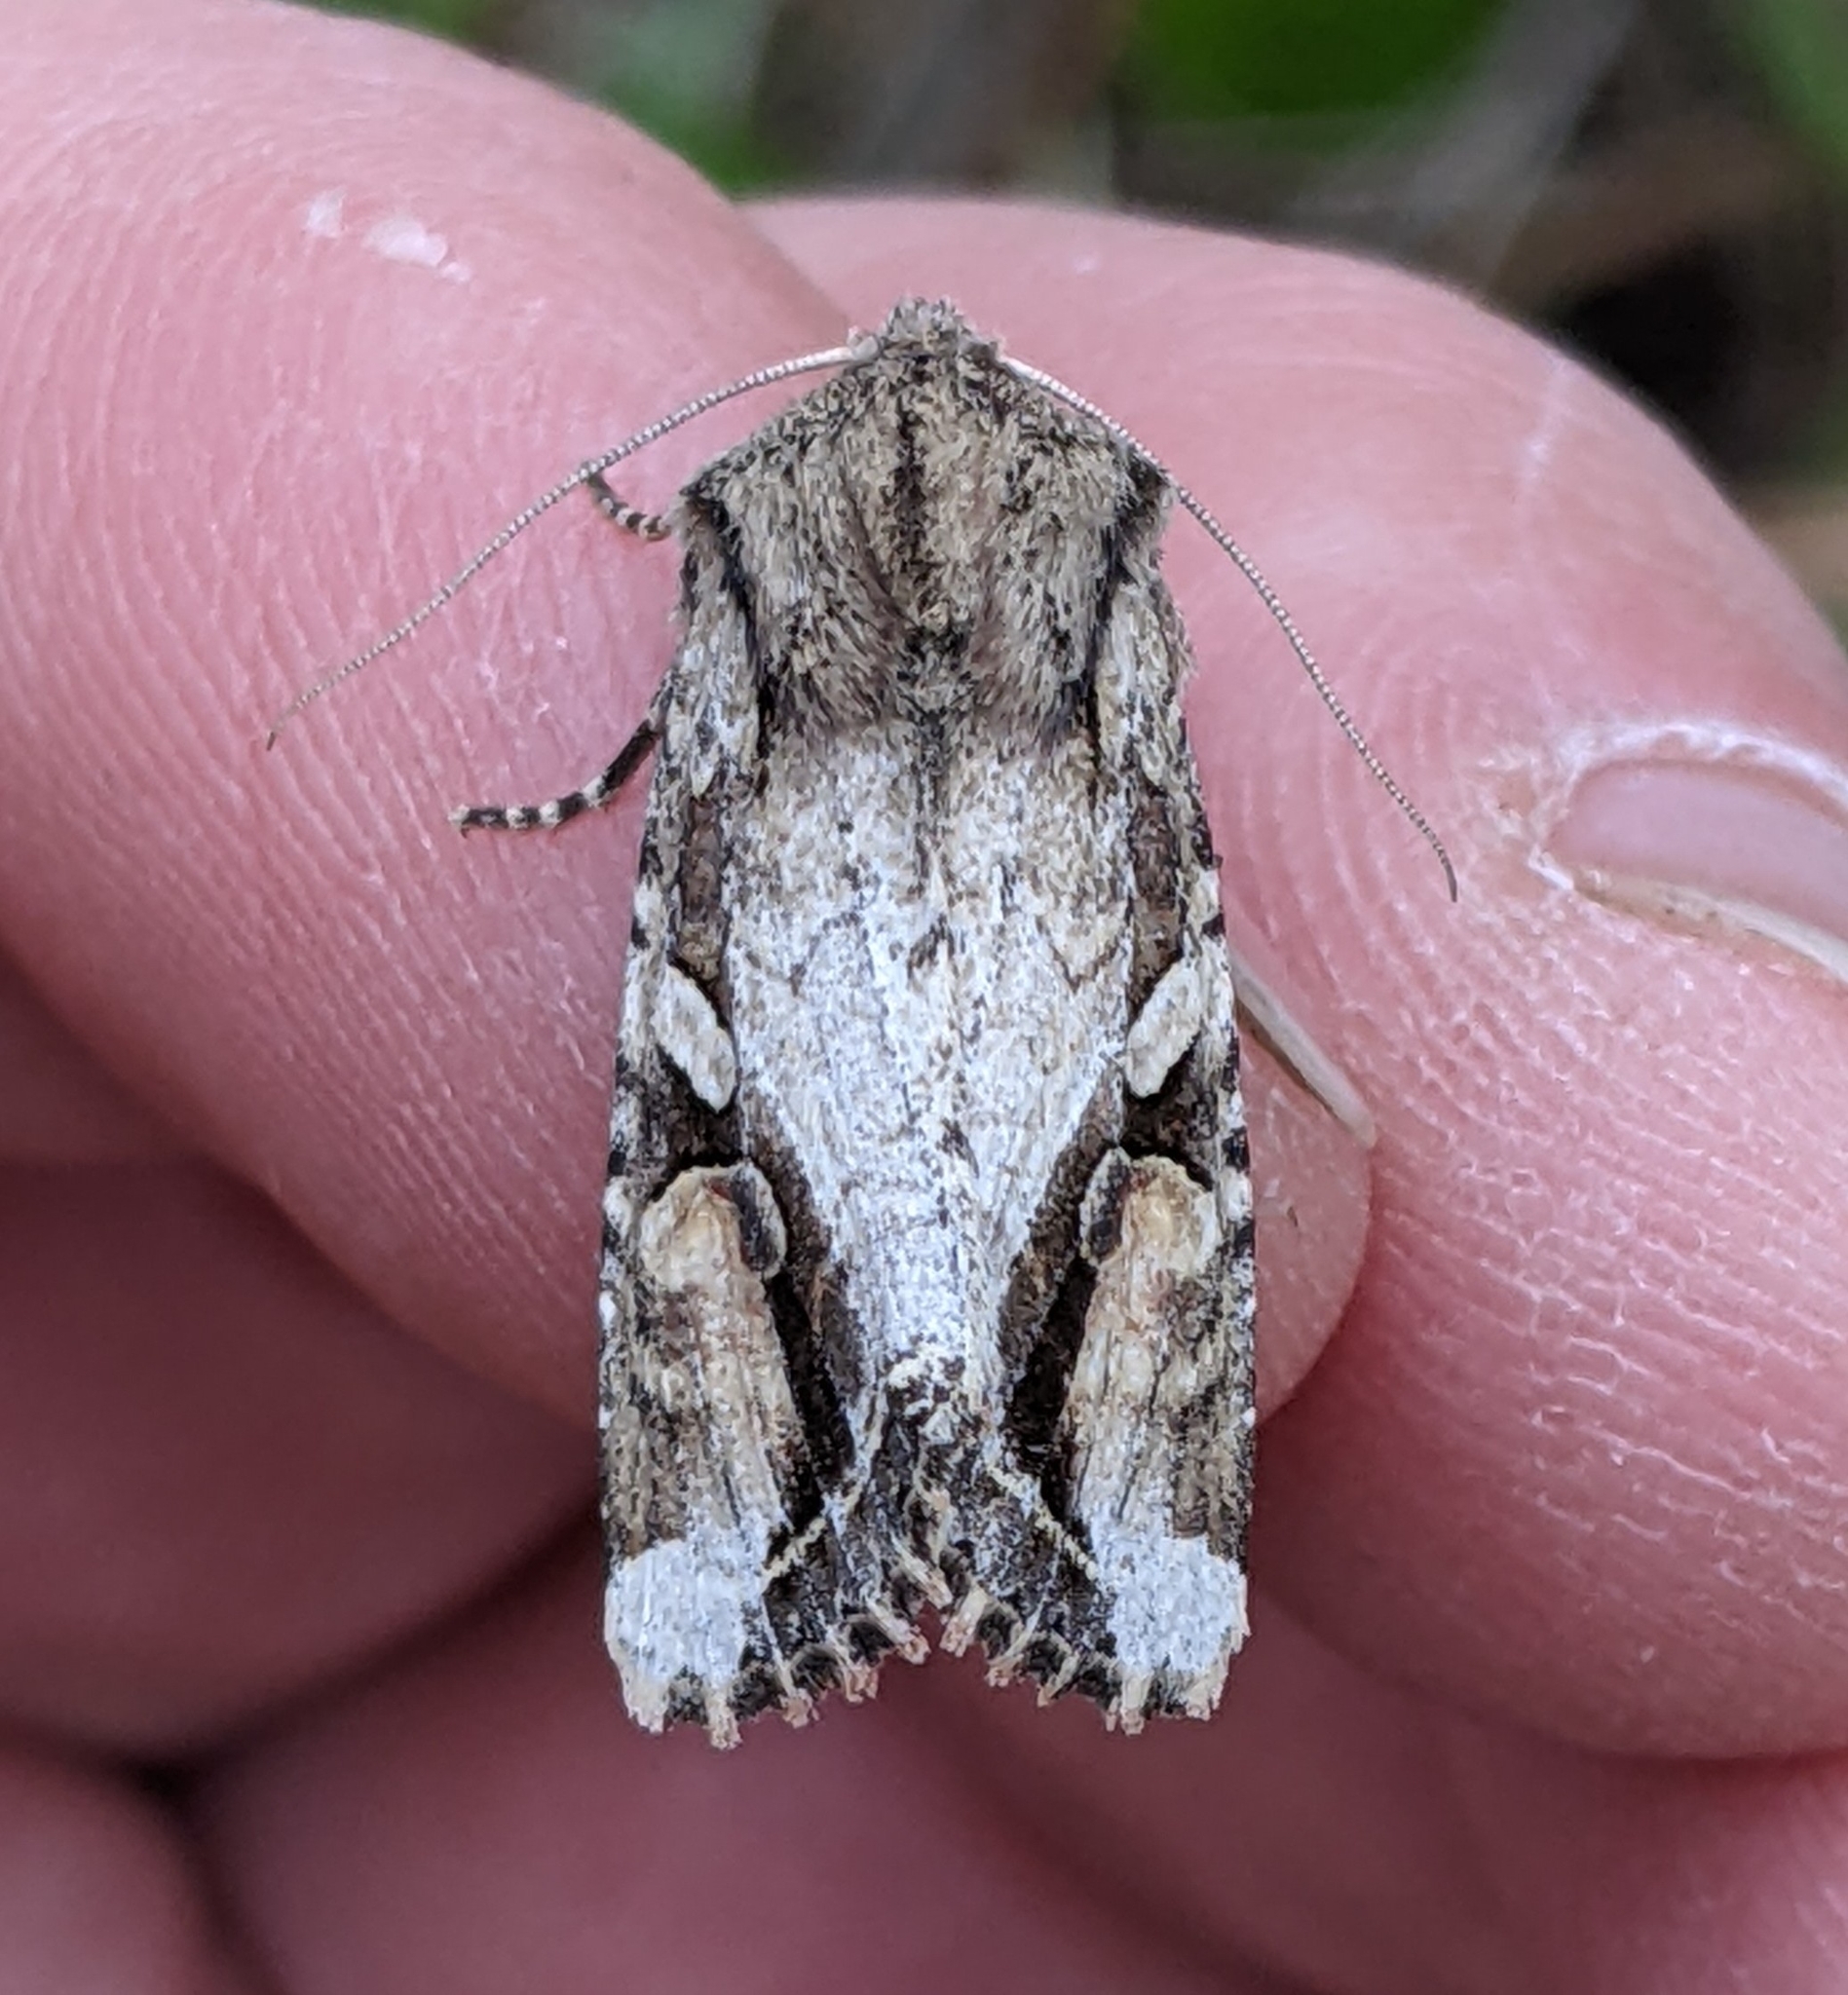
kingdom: Animalia
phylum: Arthropoda
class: Insecta
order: Lepidoptera
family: Noctuidae
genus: Egira
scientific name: Egira rubrica
